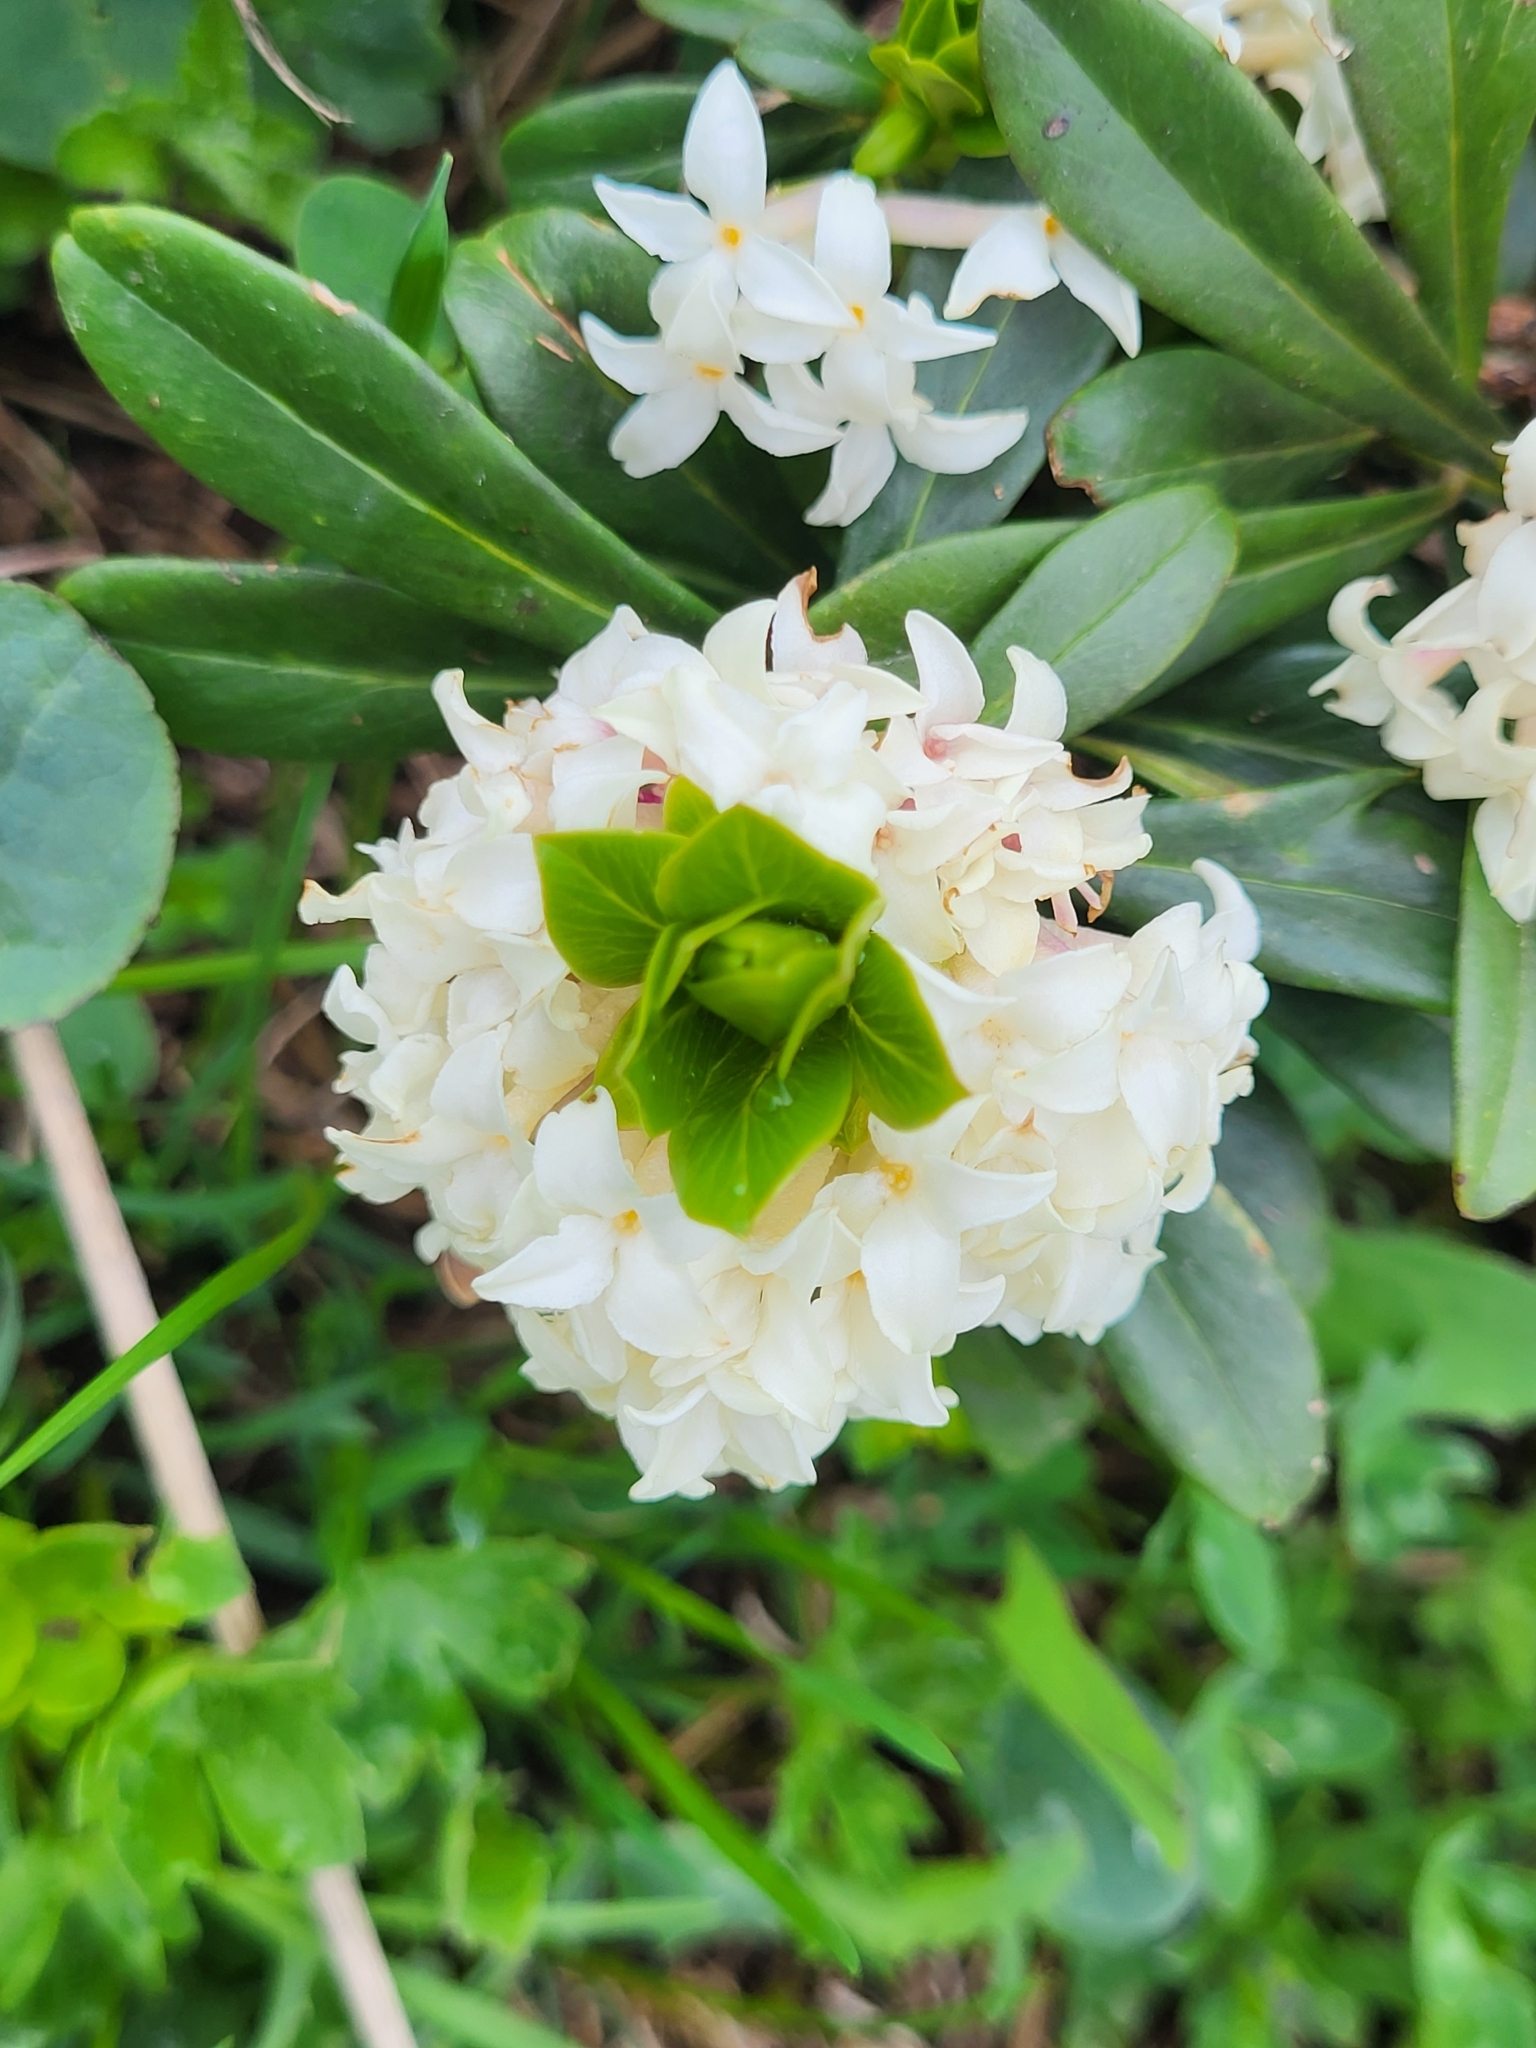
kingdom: Plantae
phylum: Tracheophyta
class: Magnoliopsida
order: Malvales
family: Thymelaeaceae
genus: Daphne
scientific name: Daphne glomerata
